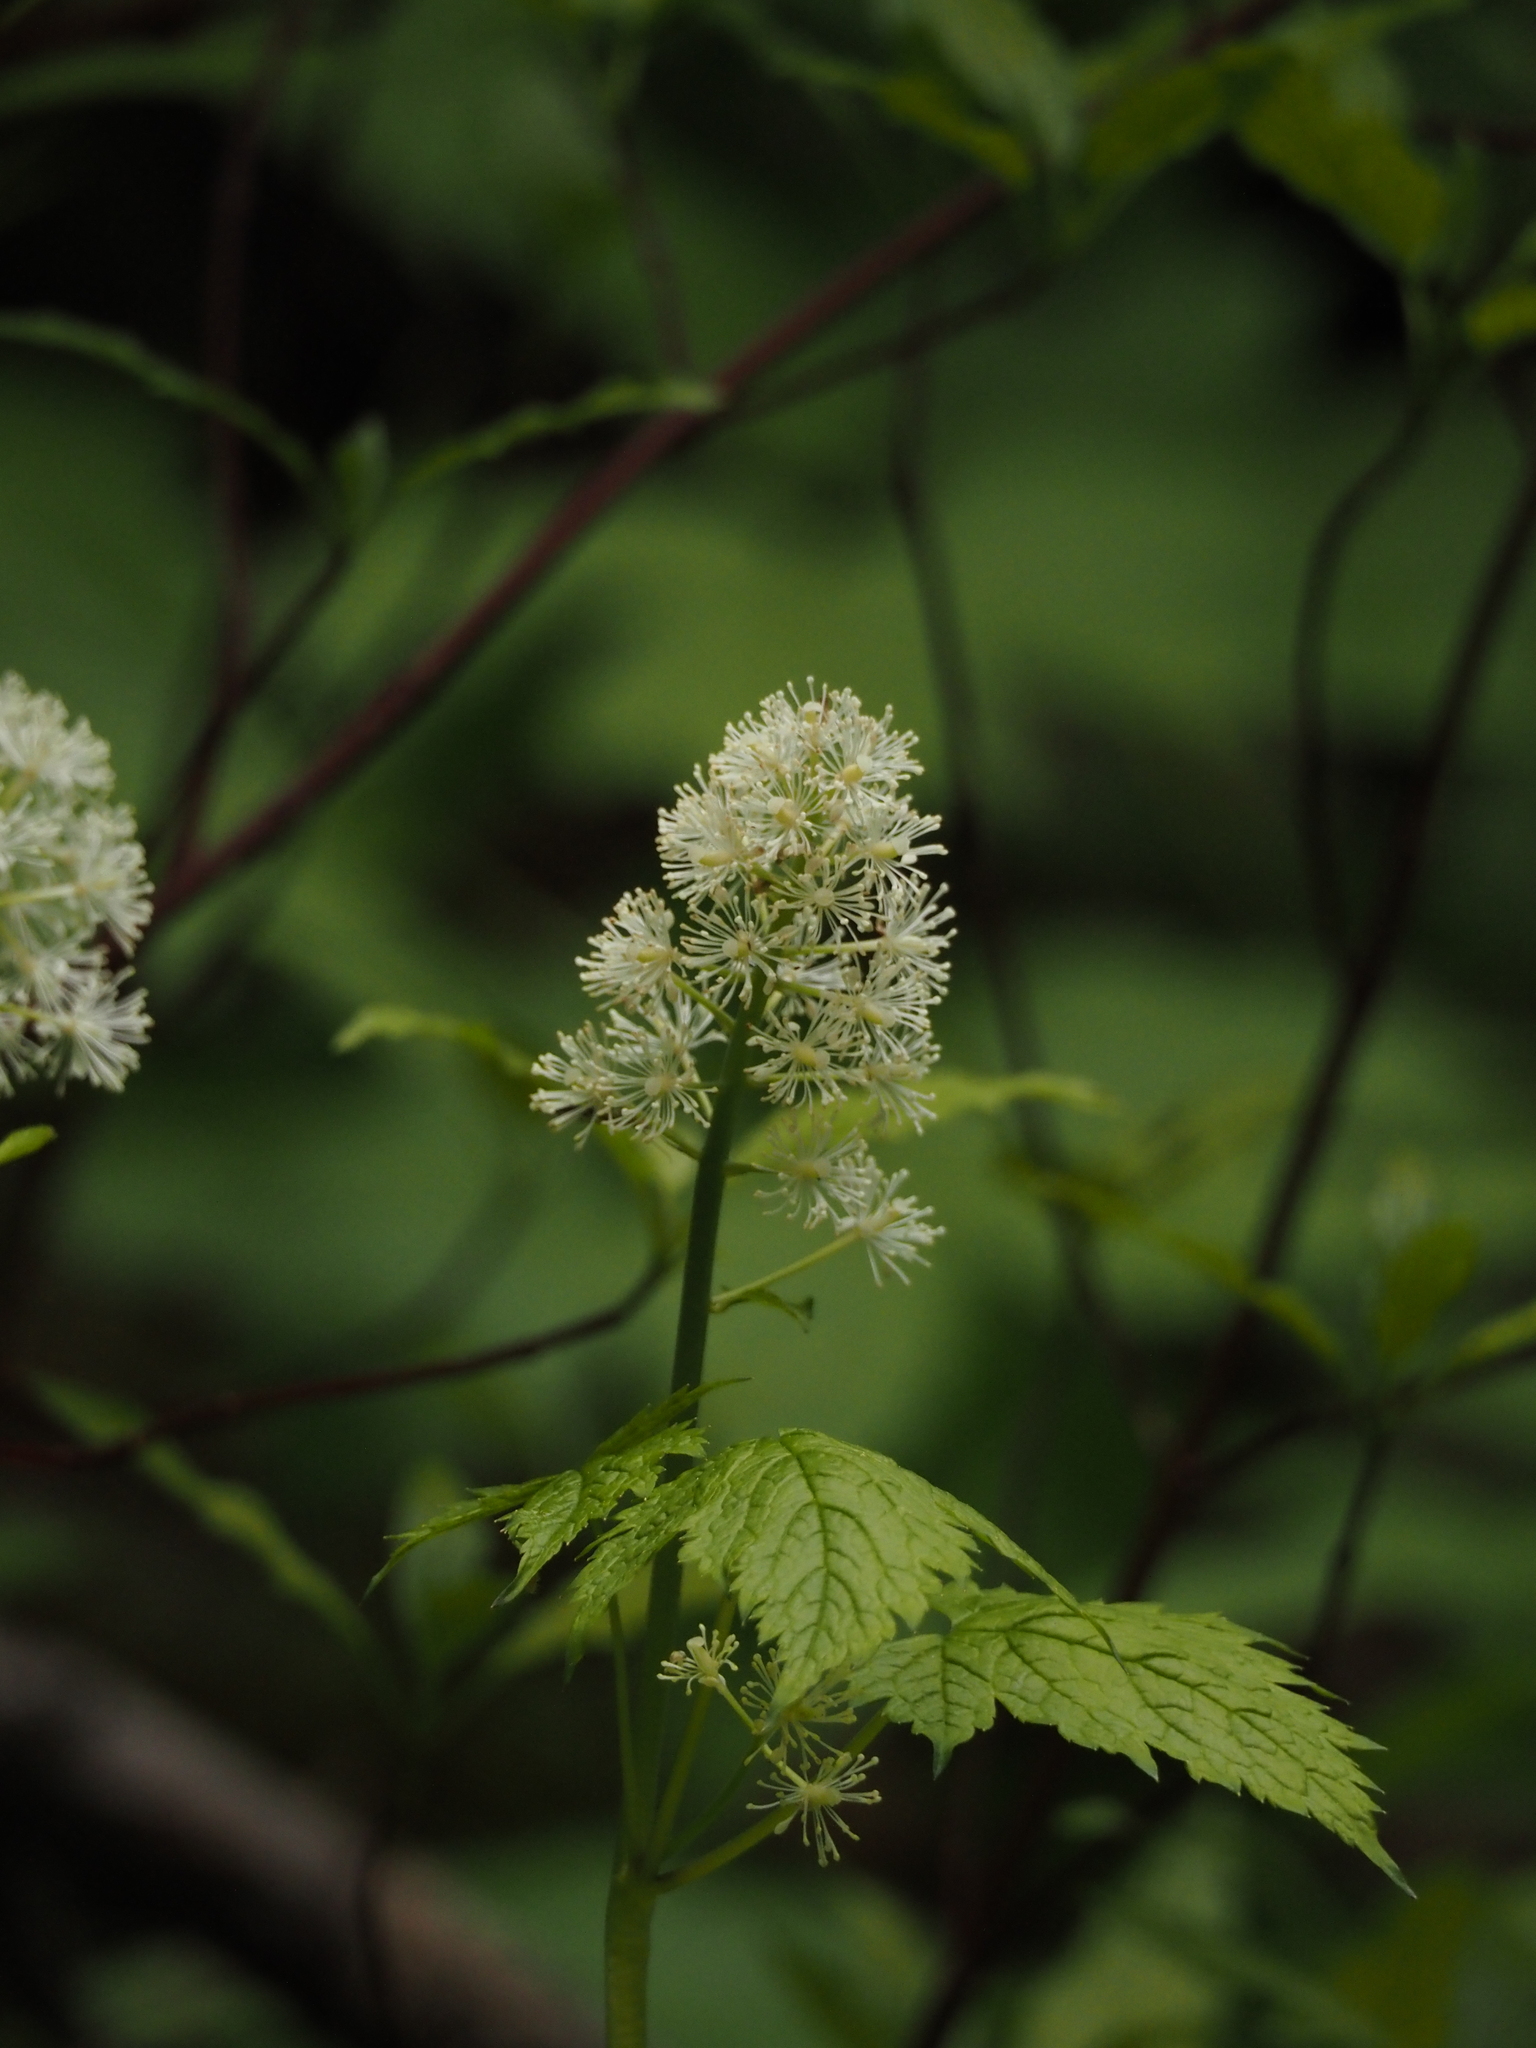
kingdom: Plantae
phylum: Tracheophyta
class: Magnoliopsida
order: Ranunculales
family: Ranunculaceae
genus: Actaea
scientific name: Actaea rubra
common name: Red baneberry
